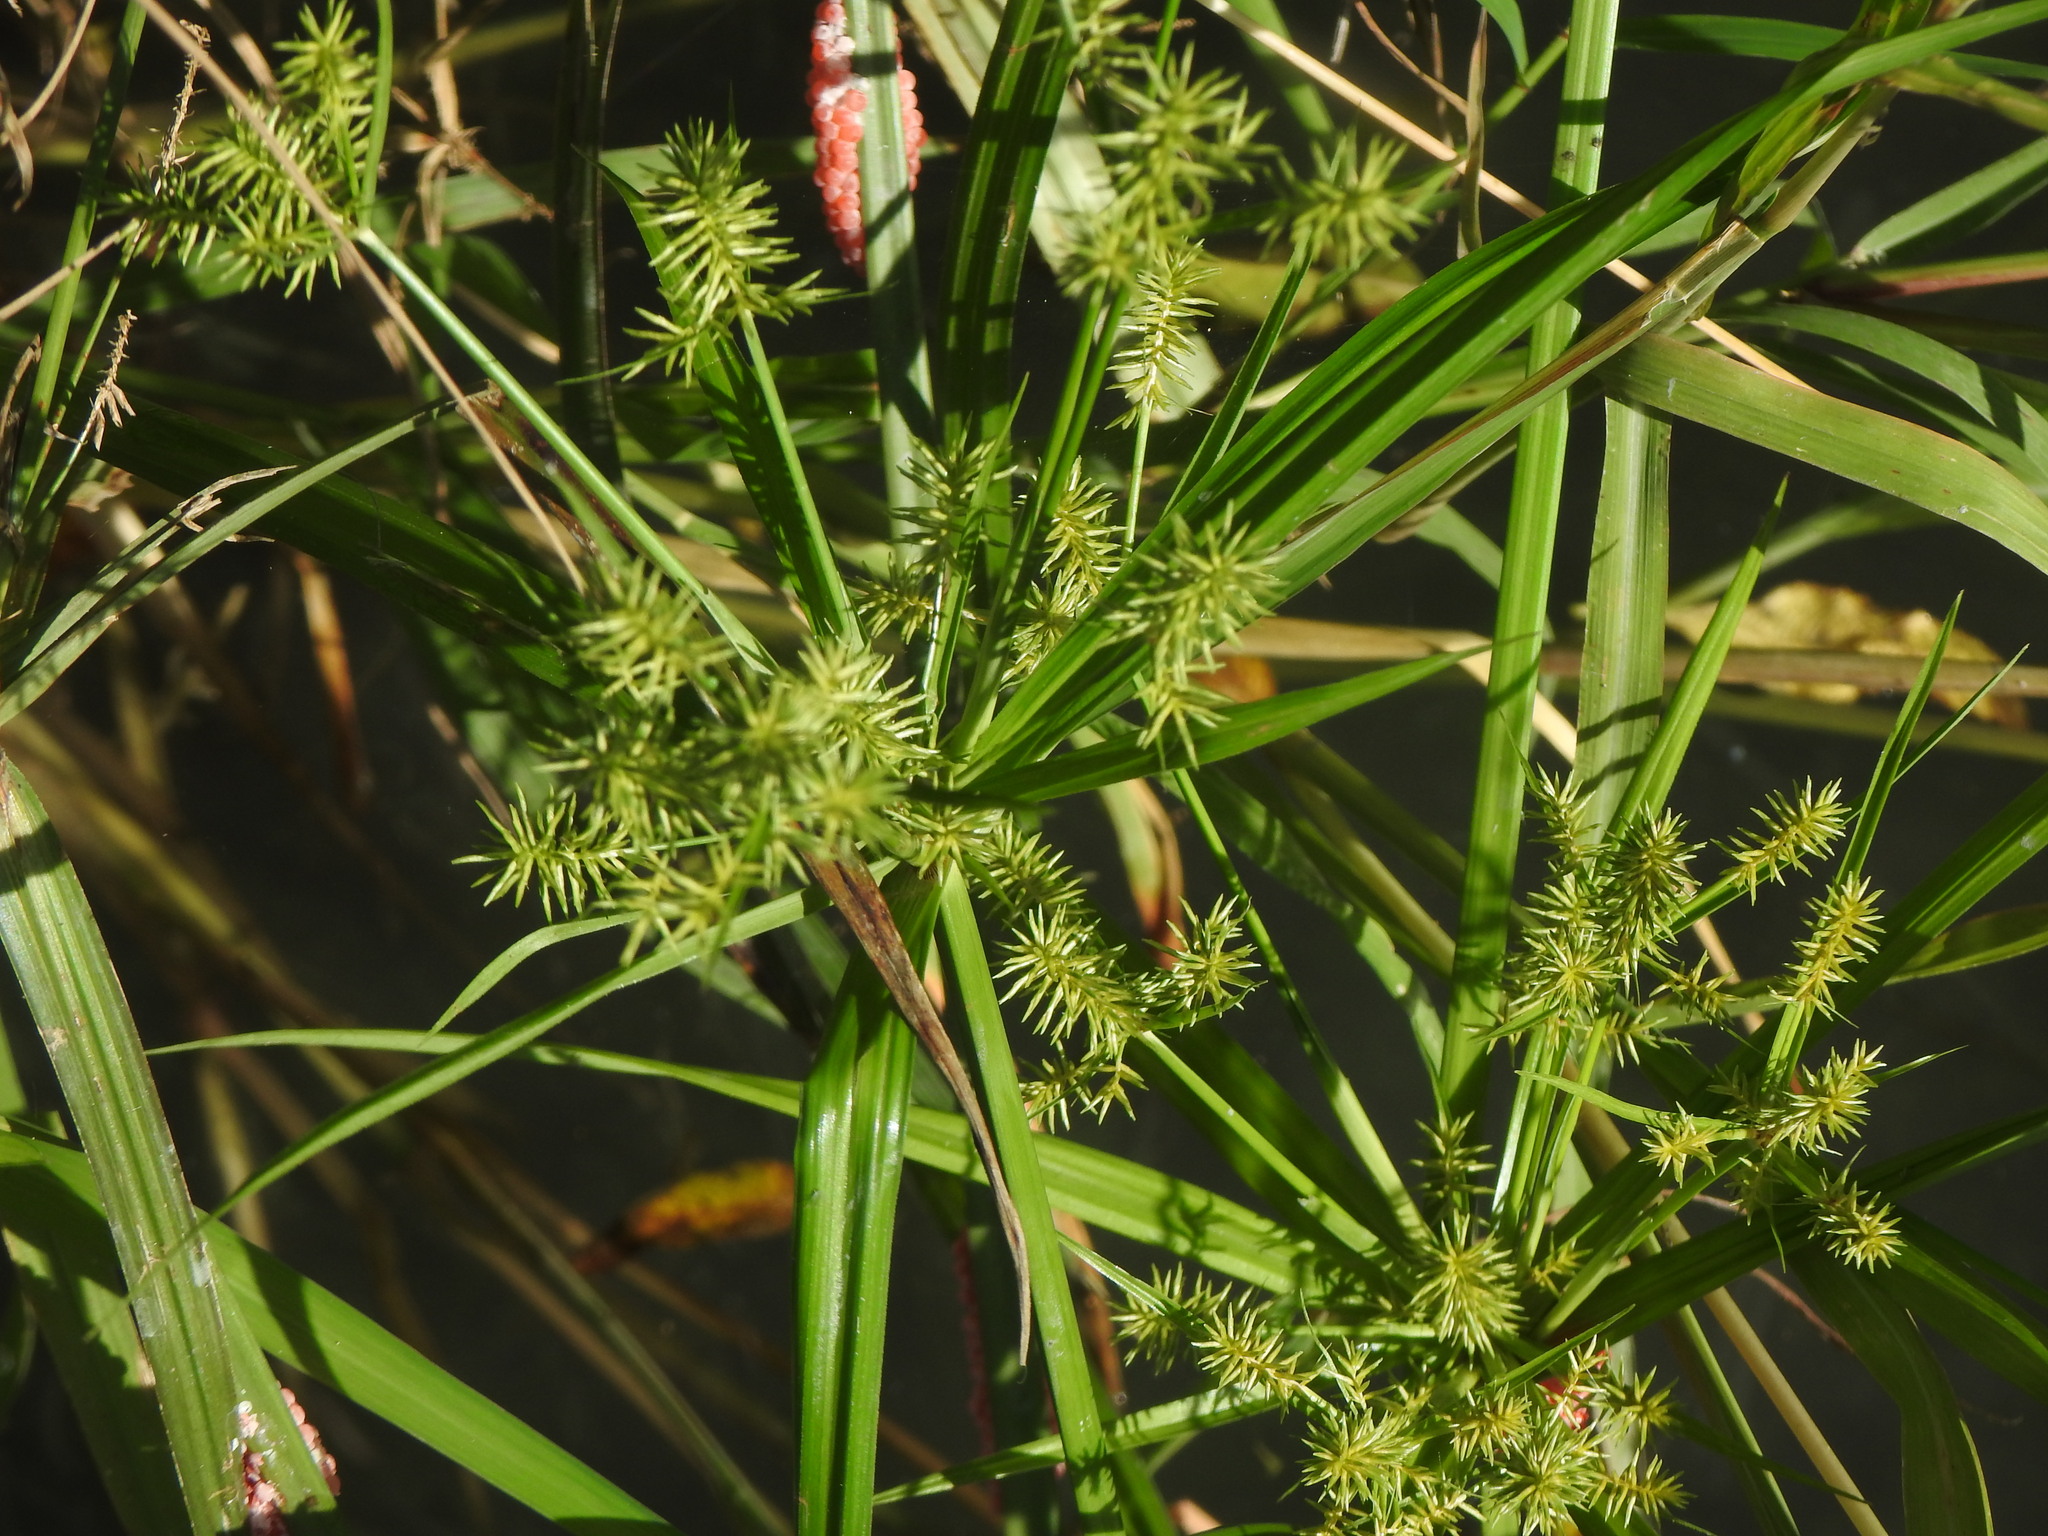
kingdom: Plantae
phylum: Tracheophyta
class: Liliopsida
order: Poales
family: Cyperaceae
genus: Cyperus
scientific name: Cyperus odoratus
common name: Fragrant flatsedge
